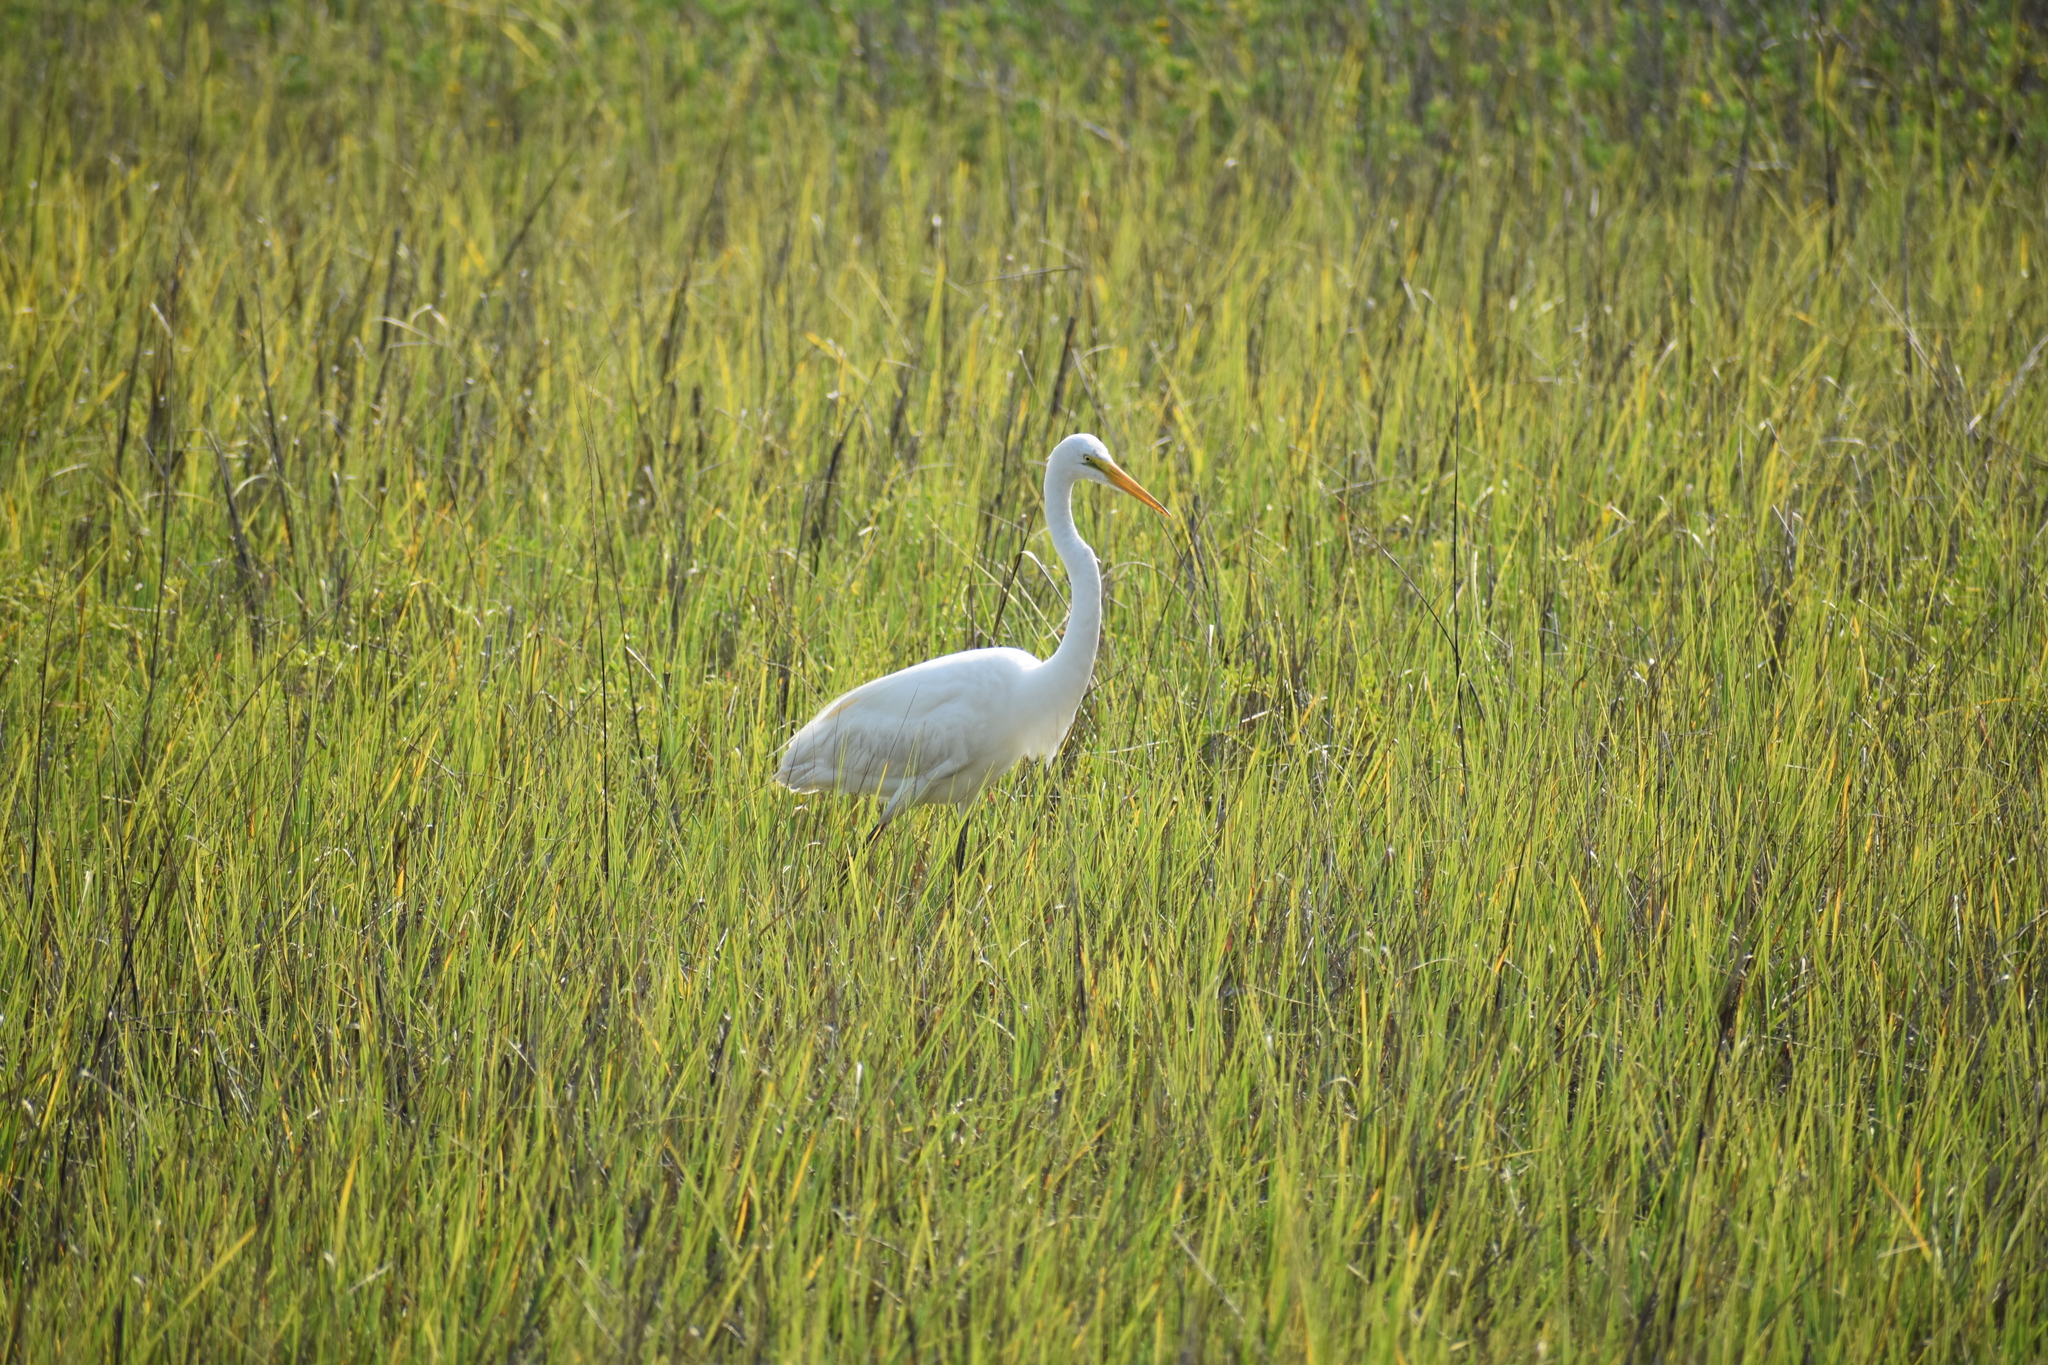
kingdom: Animalia
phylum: Chordata
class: Aves
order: Pelecaniformes
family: Ardeidae
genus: Ardea
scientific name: Ardea alba
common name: Great egret
